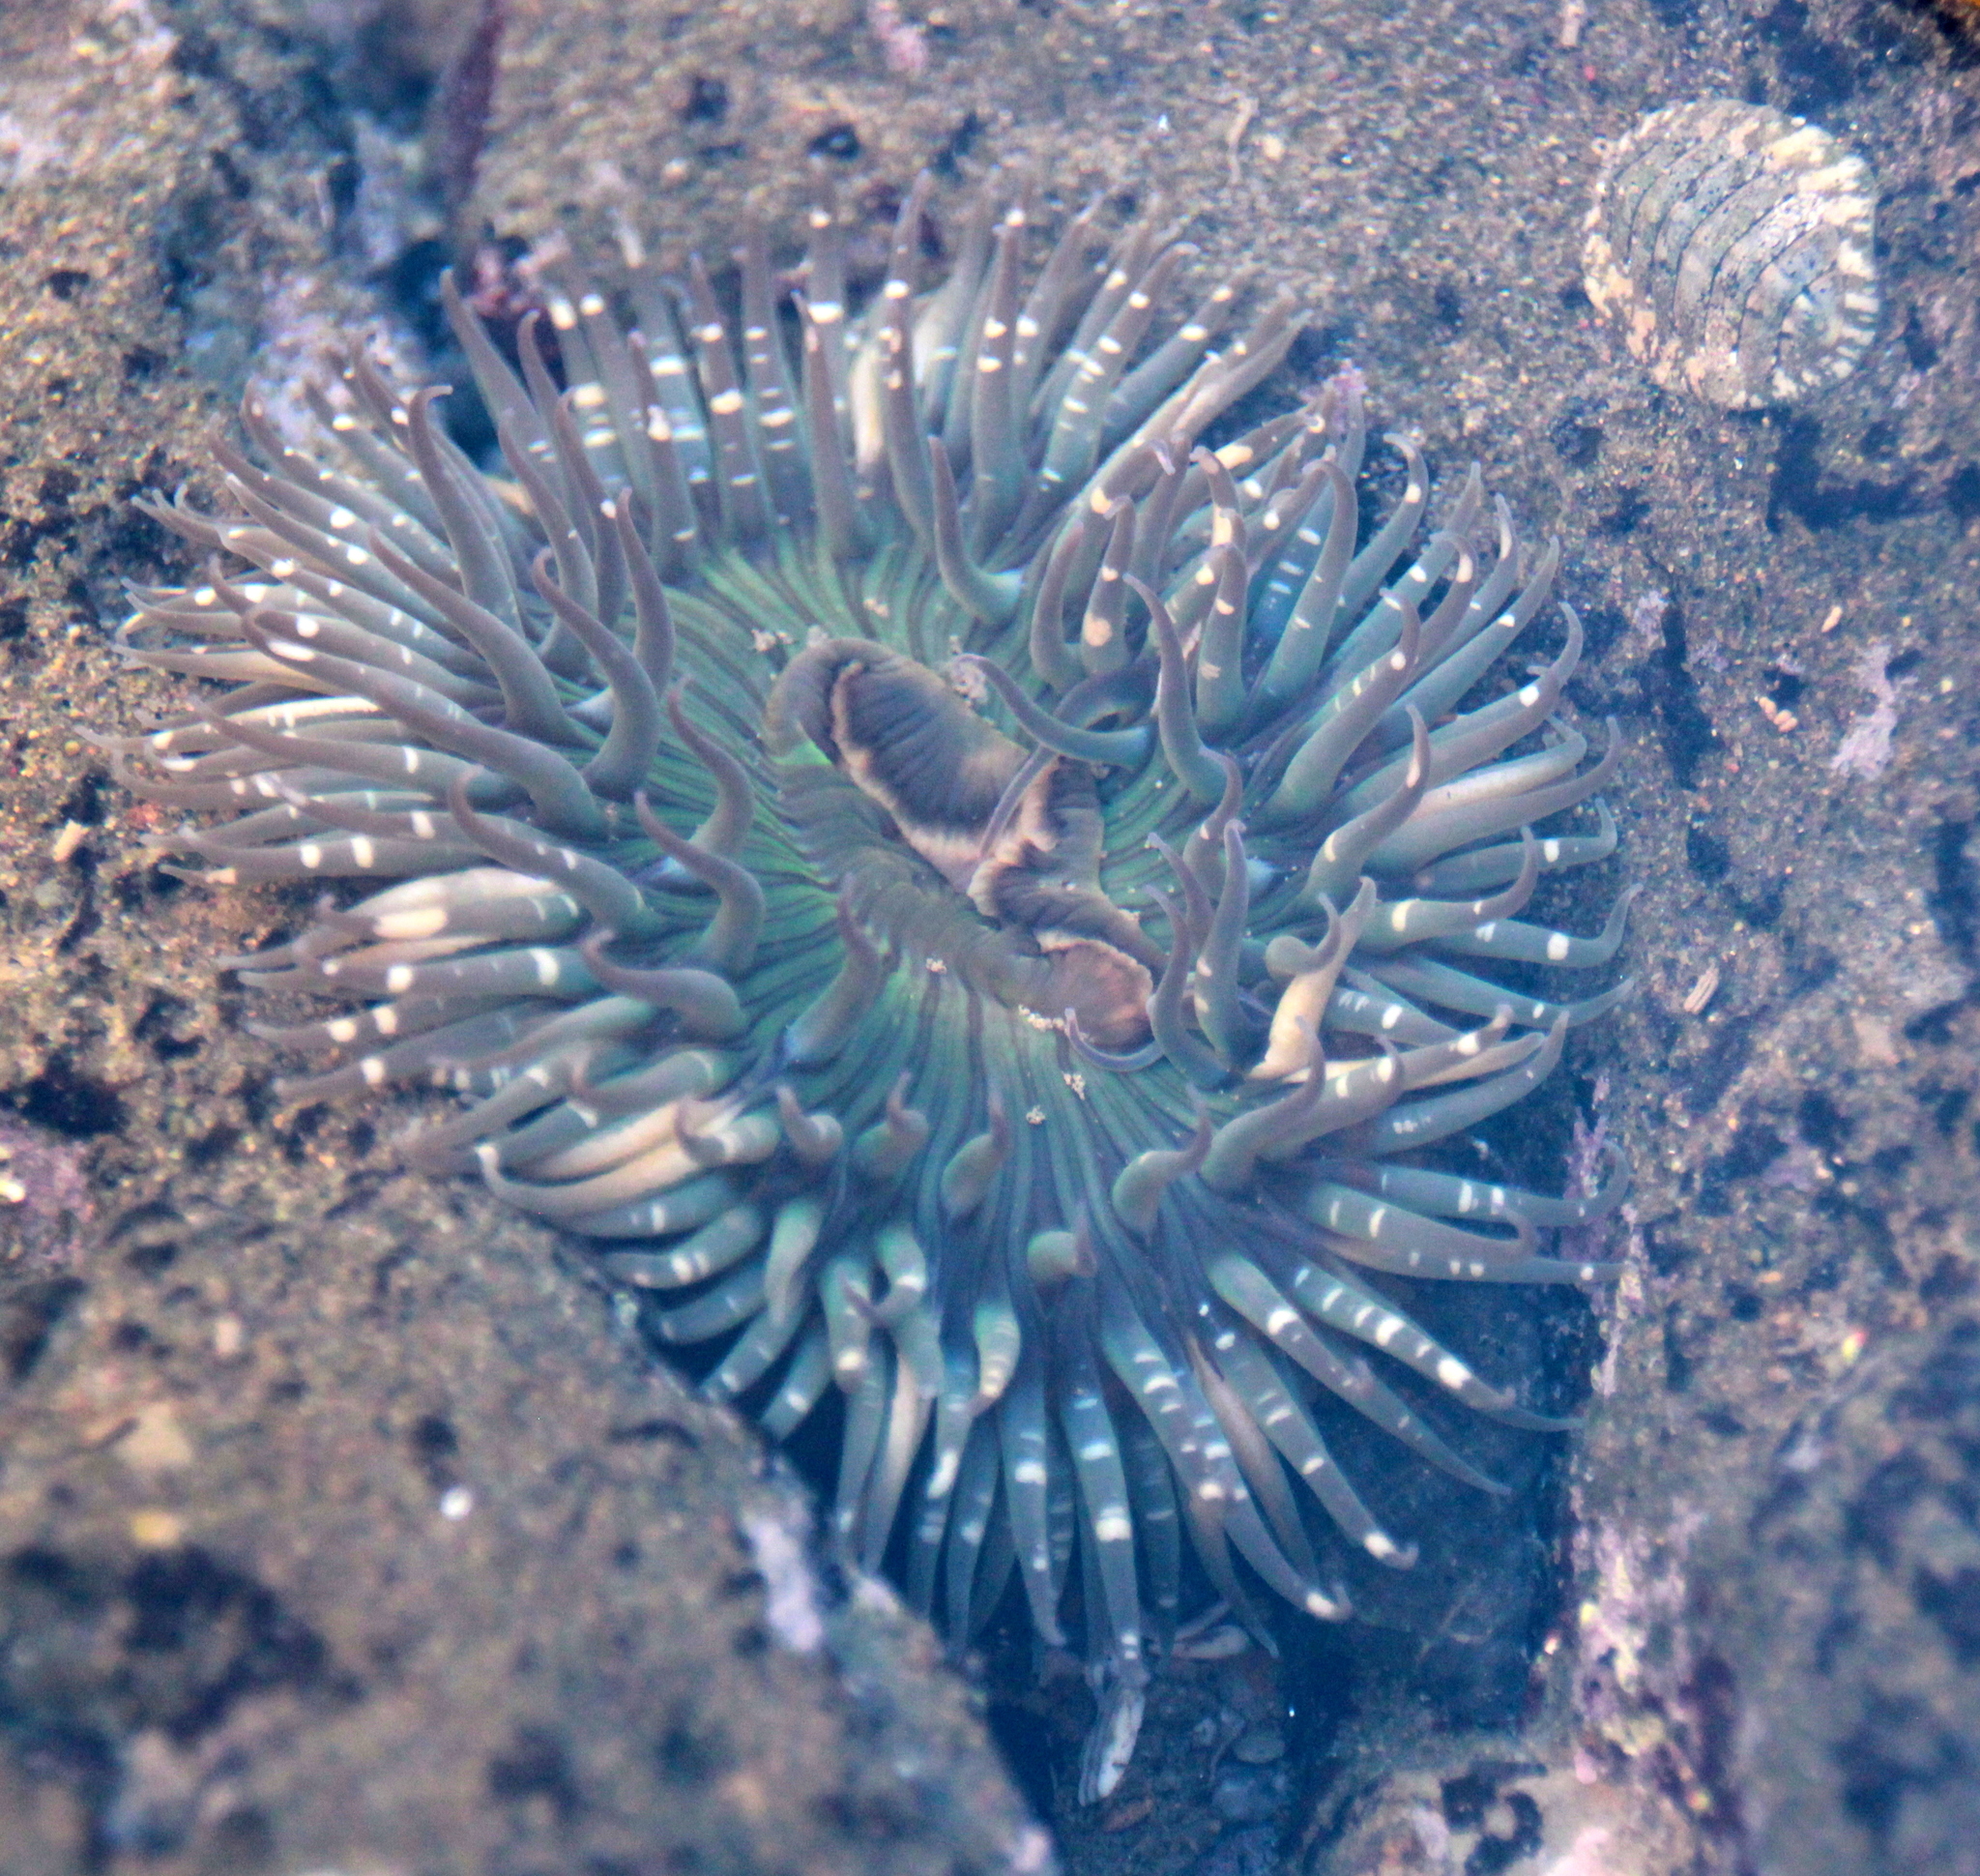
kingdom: Animalia
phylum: Cnidaria
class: Anthozoa
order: Actiniaria
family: Actiniidae
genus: Anthopleura
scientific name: Anthopleura sola
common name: Sun anemone
